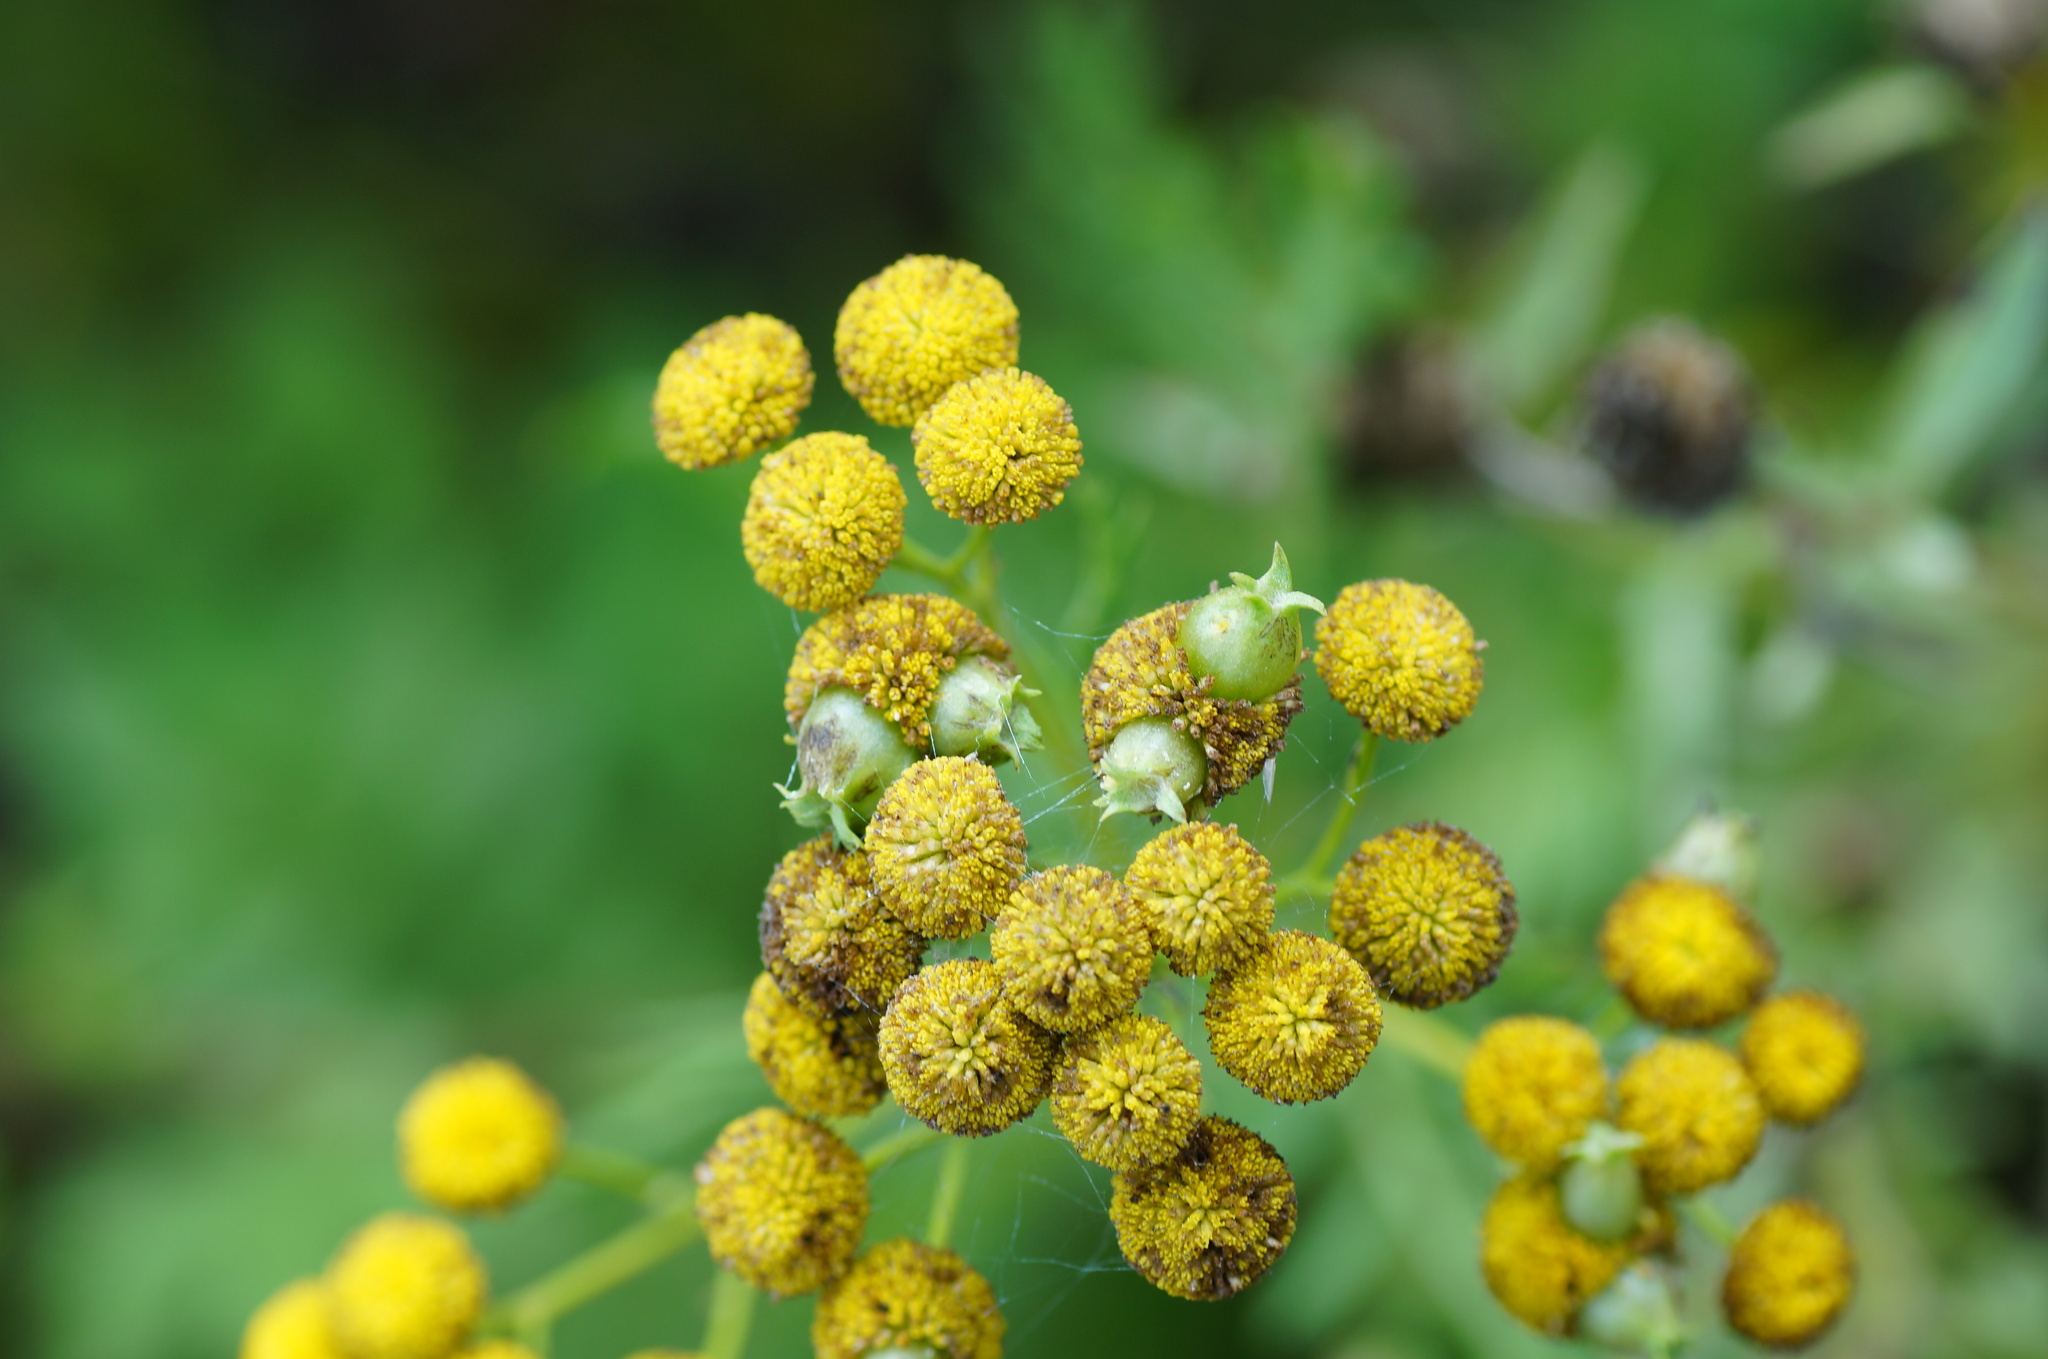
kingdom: Animalia
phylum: Arthropoda
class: Insecta
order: Diptera
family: Cecidomyiidae
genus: Rhopalomyia
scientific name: Rhopalomyia tanaceticolus
